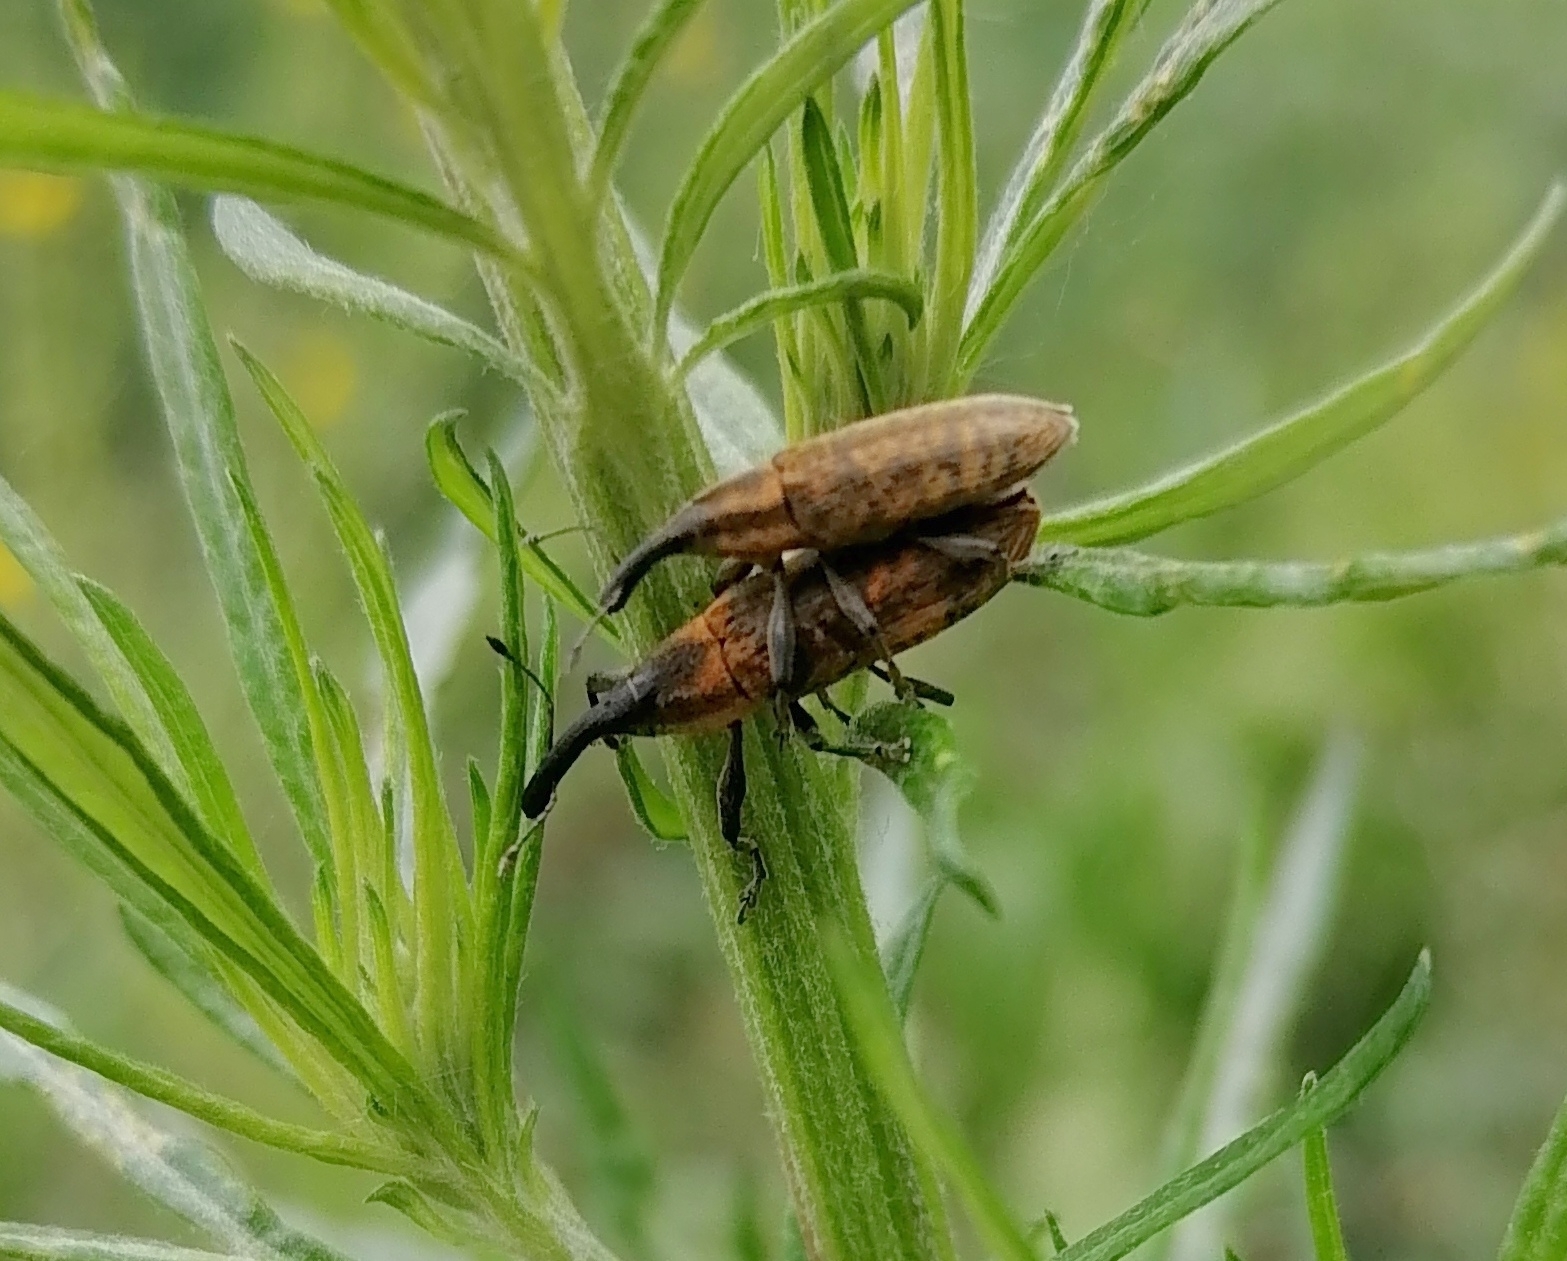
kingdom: Animalia
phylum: Arthropoda
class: Insecta
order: Coleoptera
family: Curculionidae
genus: Lixus
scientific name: Lixus fasciculatus
